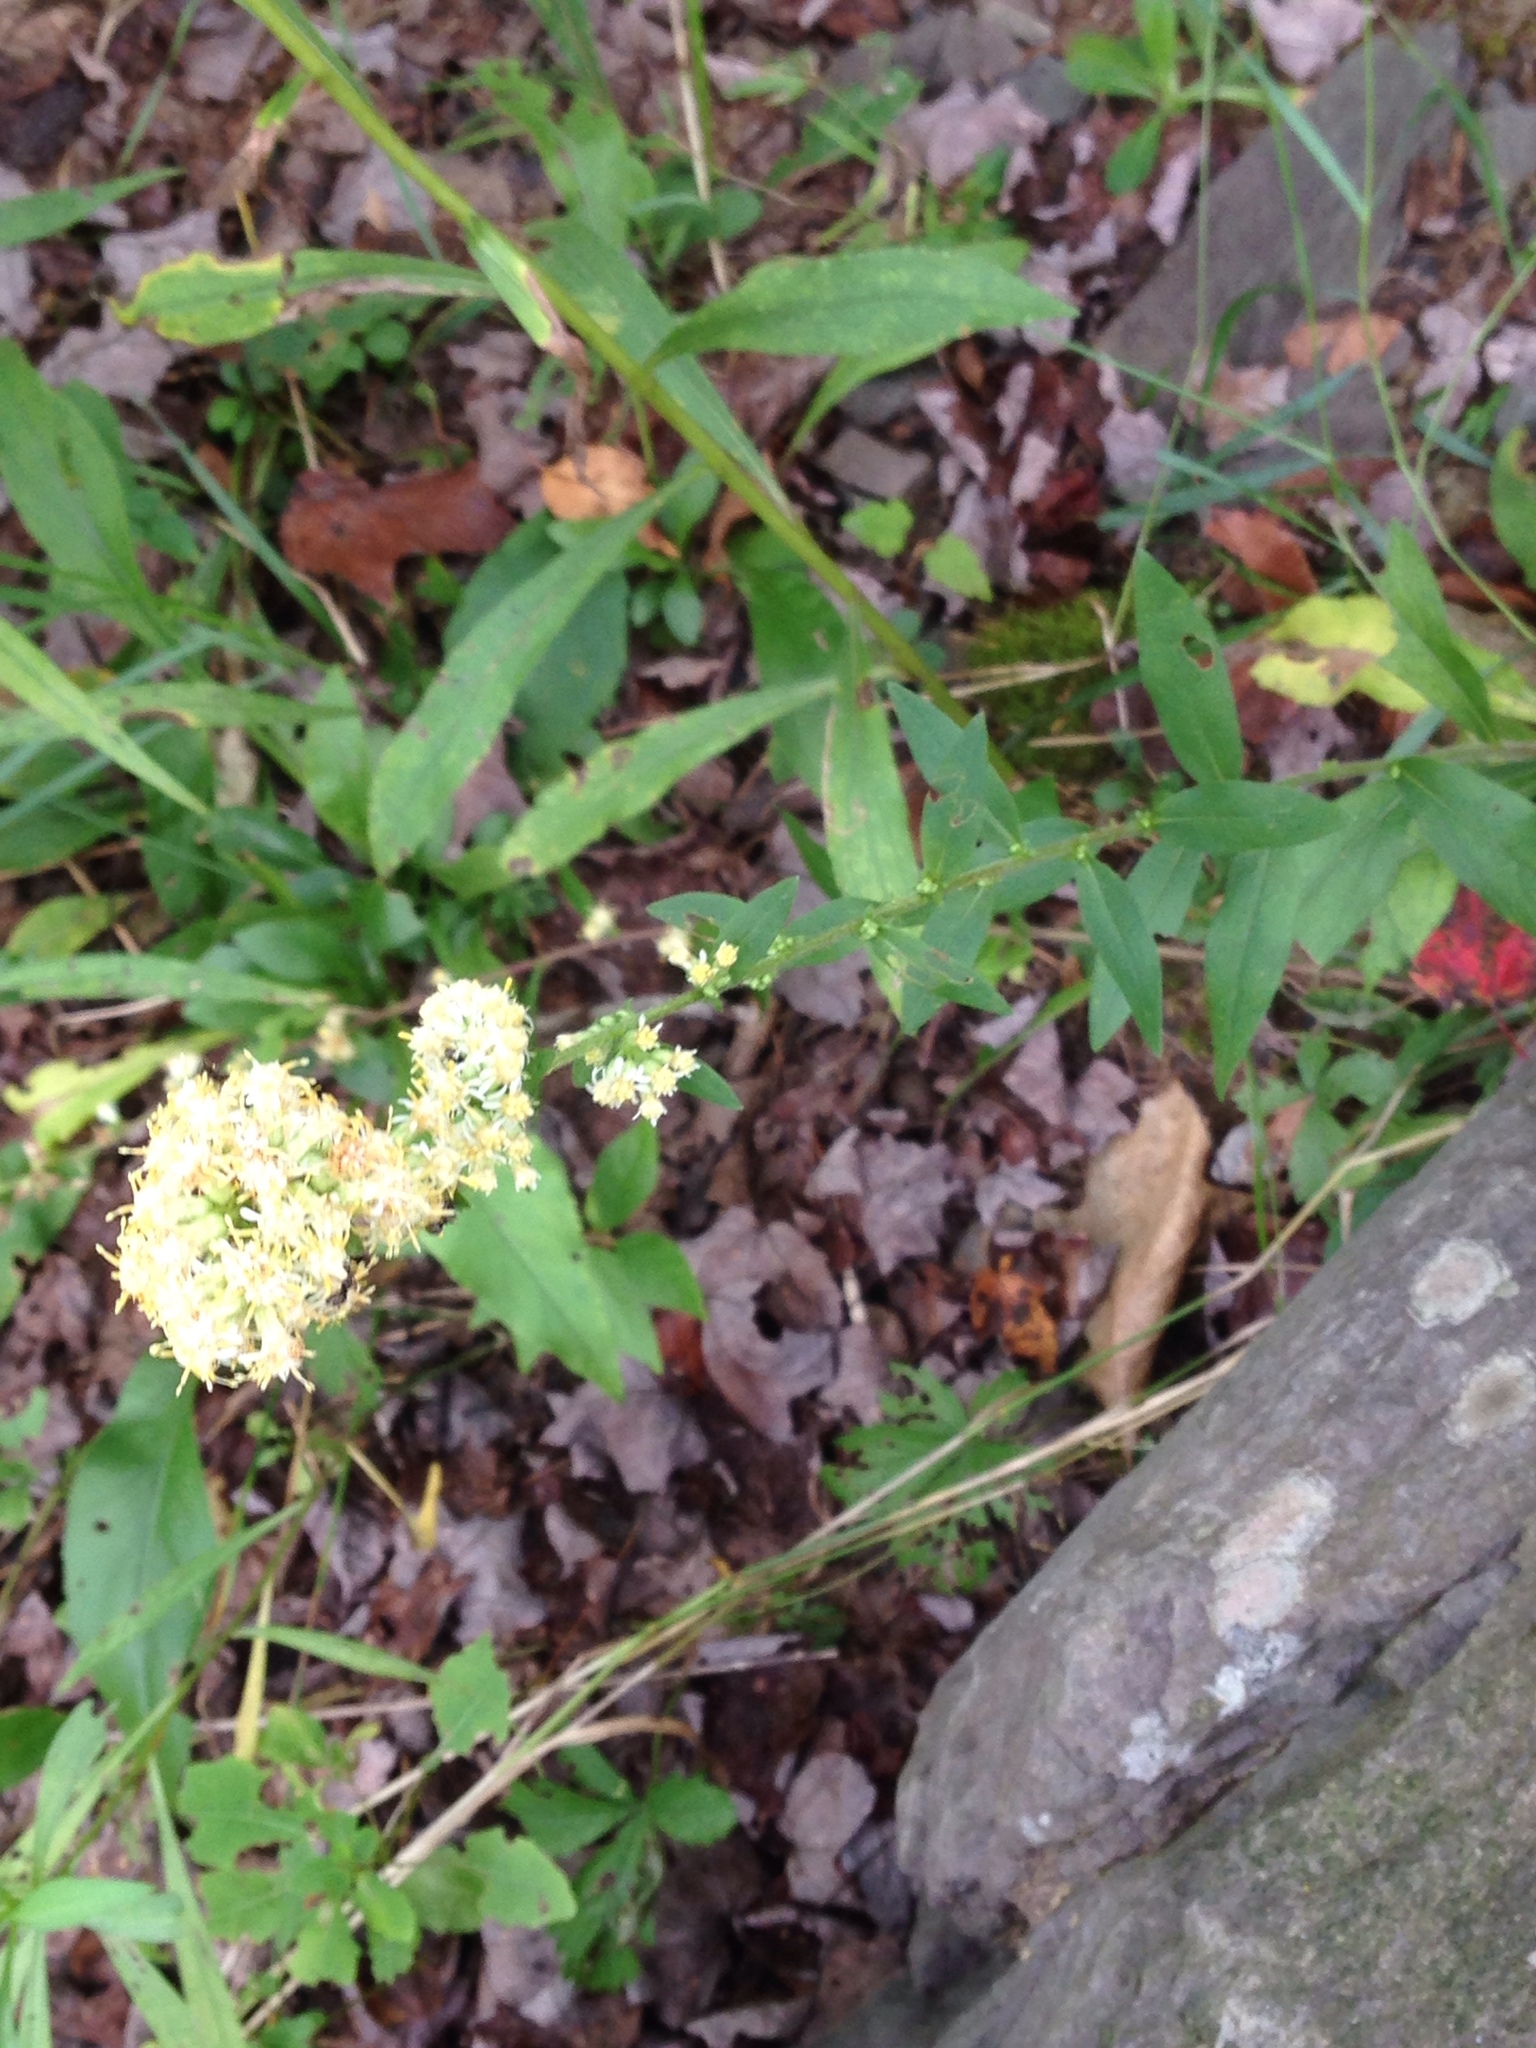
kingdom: Plantae
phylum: Tracheophyta
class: Magnoliopsida
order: Asterales
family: Asteraceae
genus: Solidago
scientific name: Solidago bicolor
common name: Silverrod
